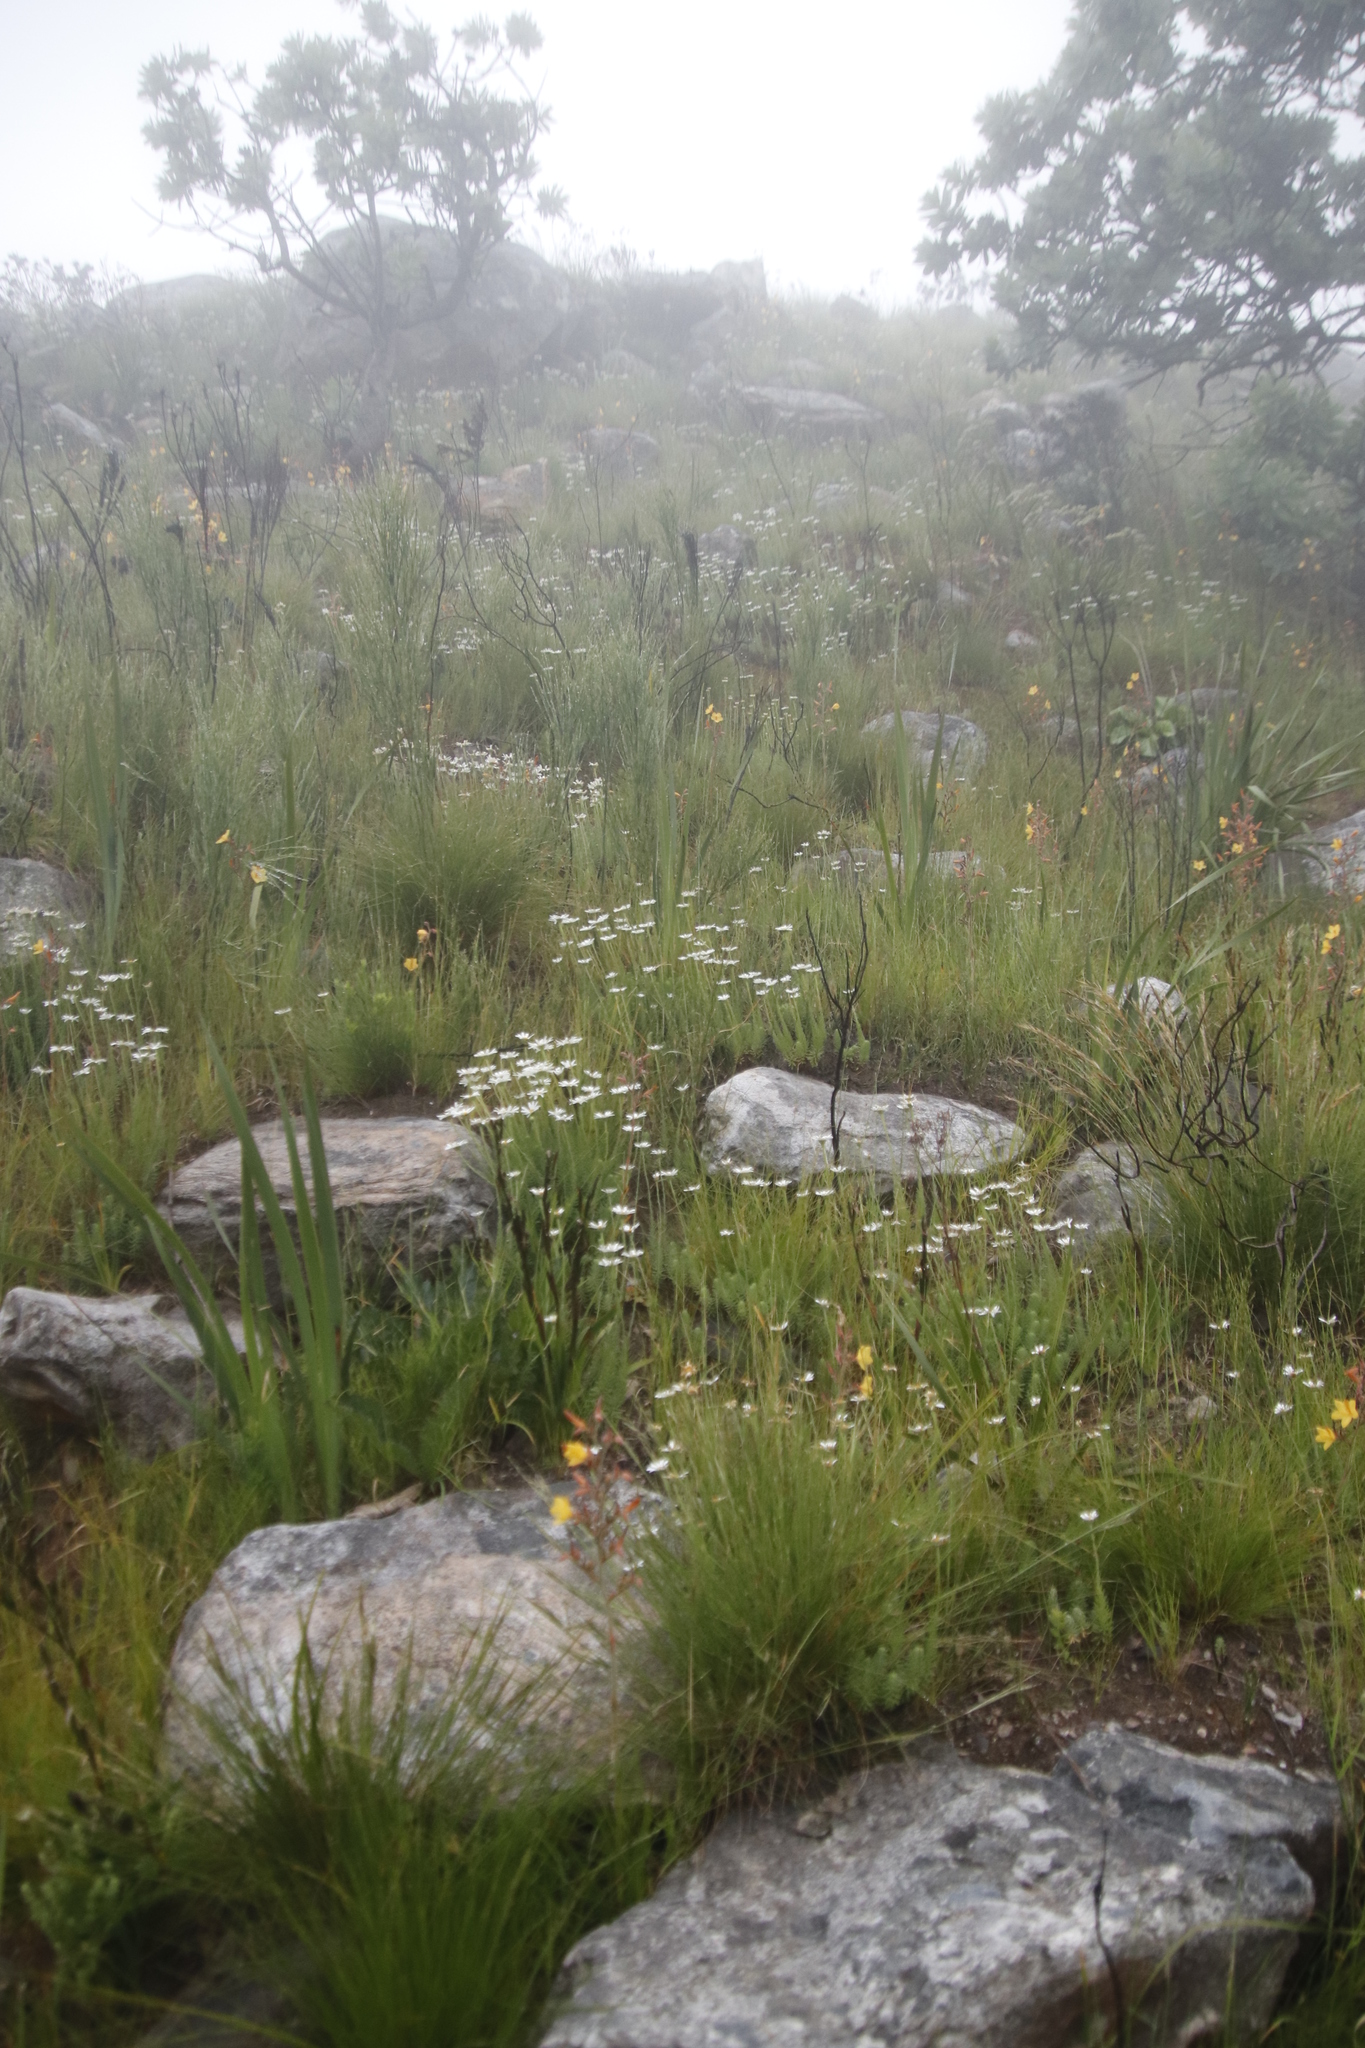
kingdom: Plantae
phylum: Tracheophyta
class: Magnoliopsida
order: Asterales
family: Asteraceae
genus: Osmitopsis
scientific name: Osmitopsis afra
